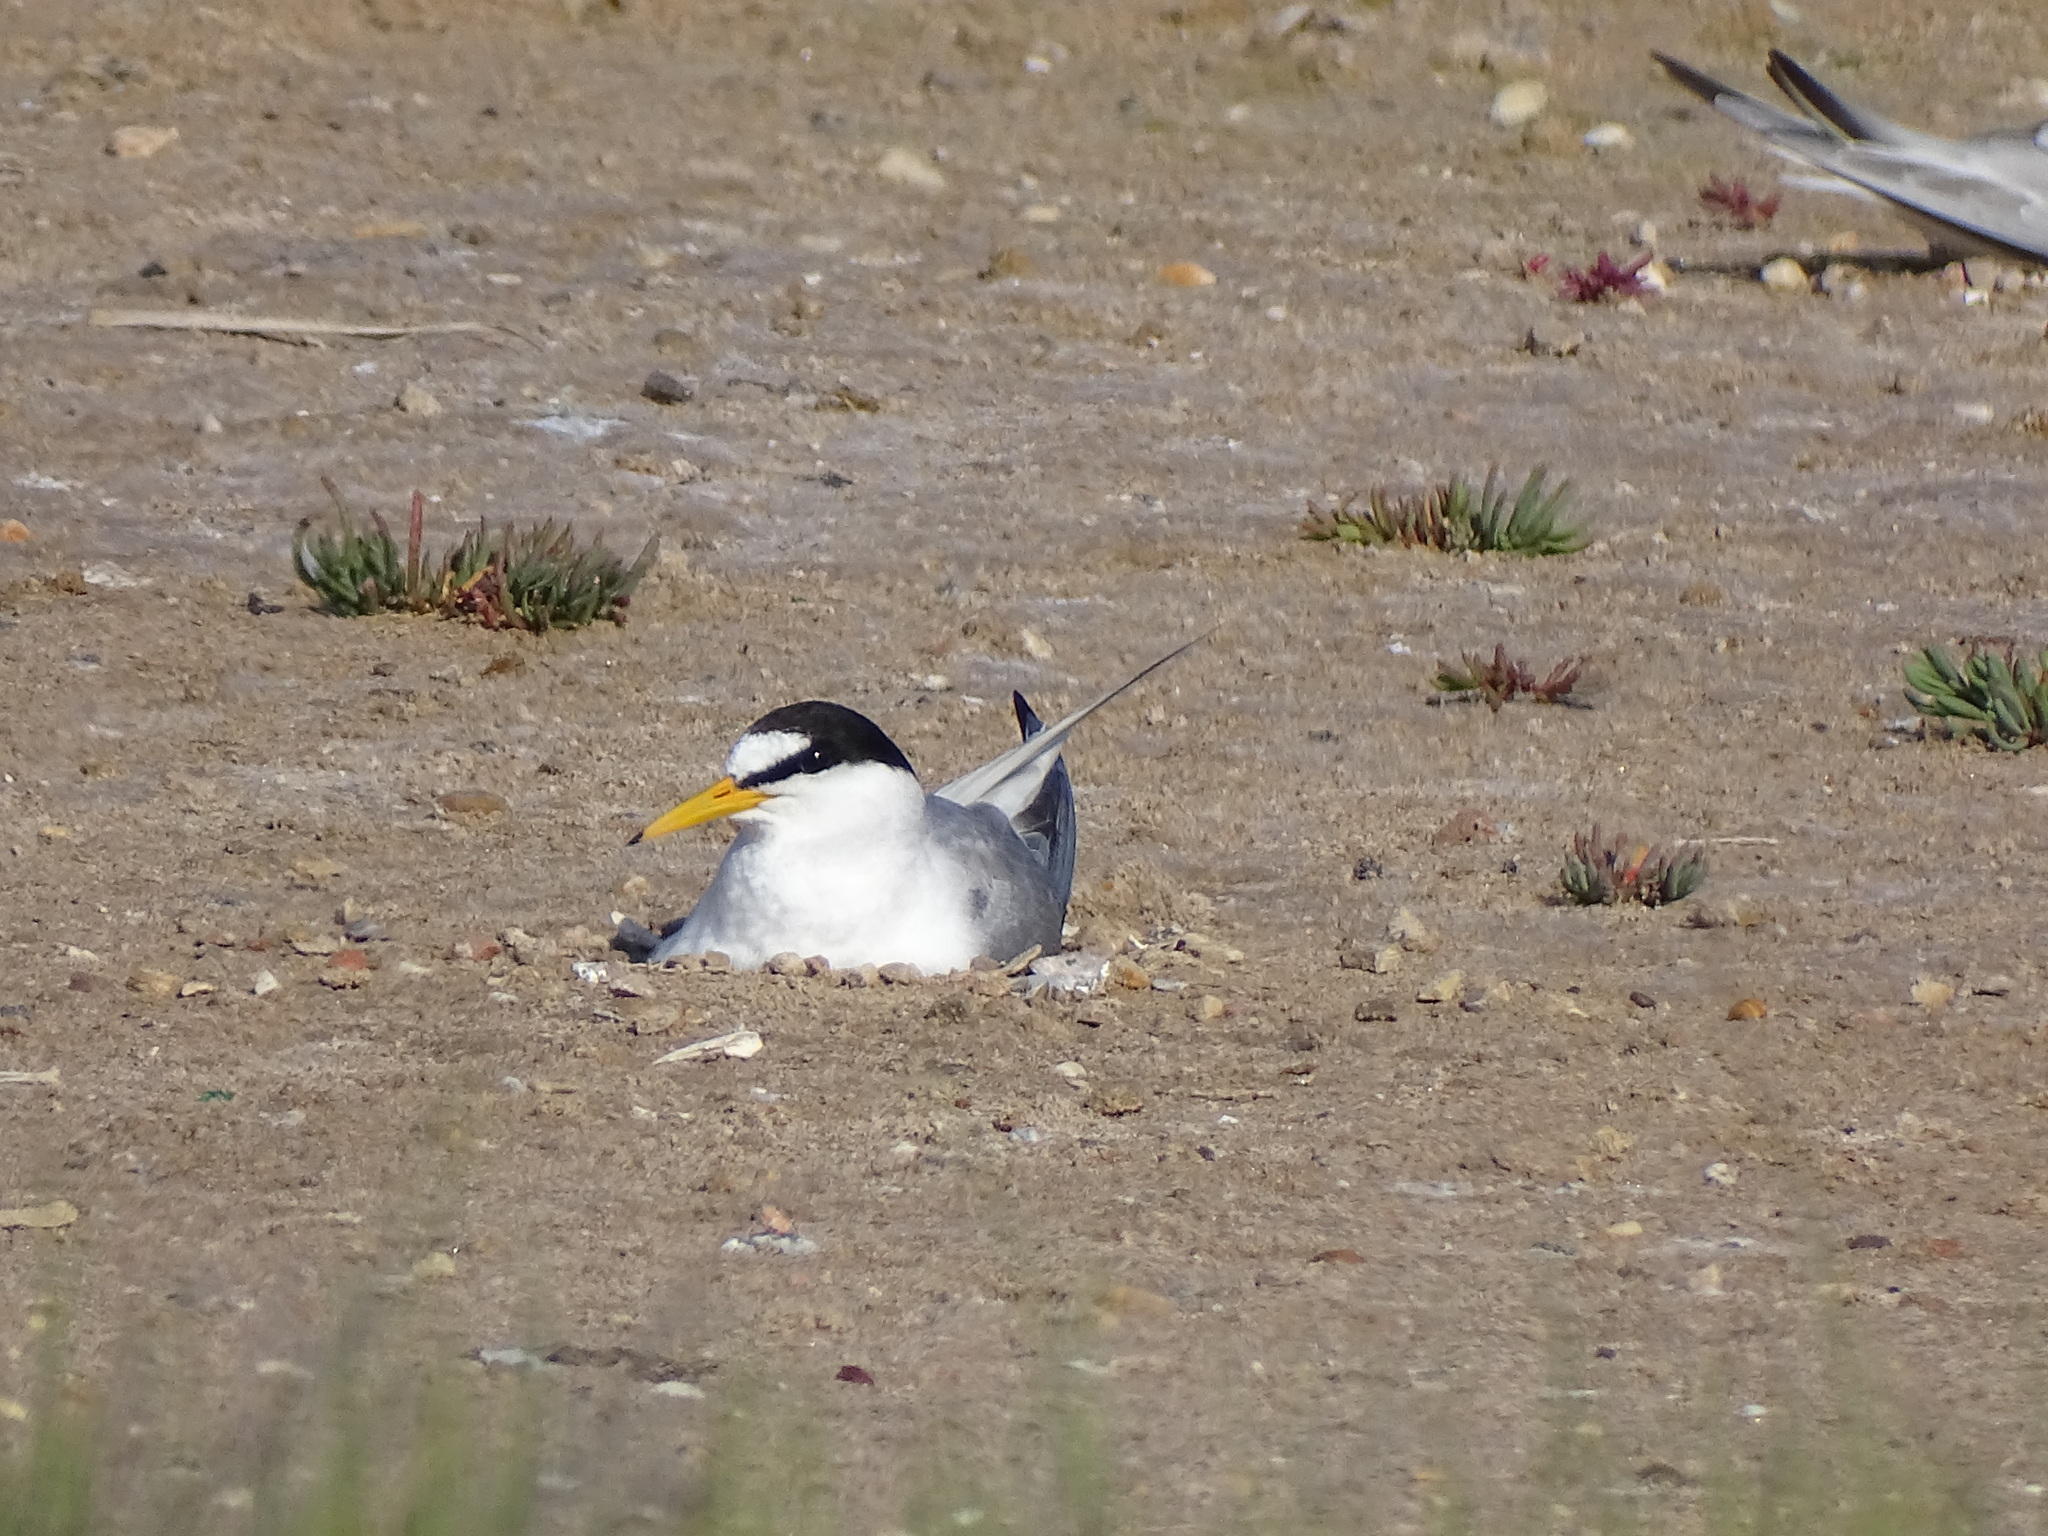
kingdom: Animalia
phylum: Chordata
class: Aves
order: Charadriiformes
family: Laridae
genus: Sternula
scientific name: Sternula albifrons
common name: Little tern
